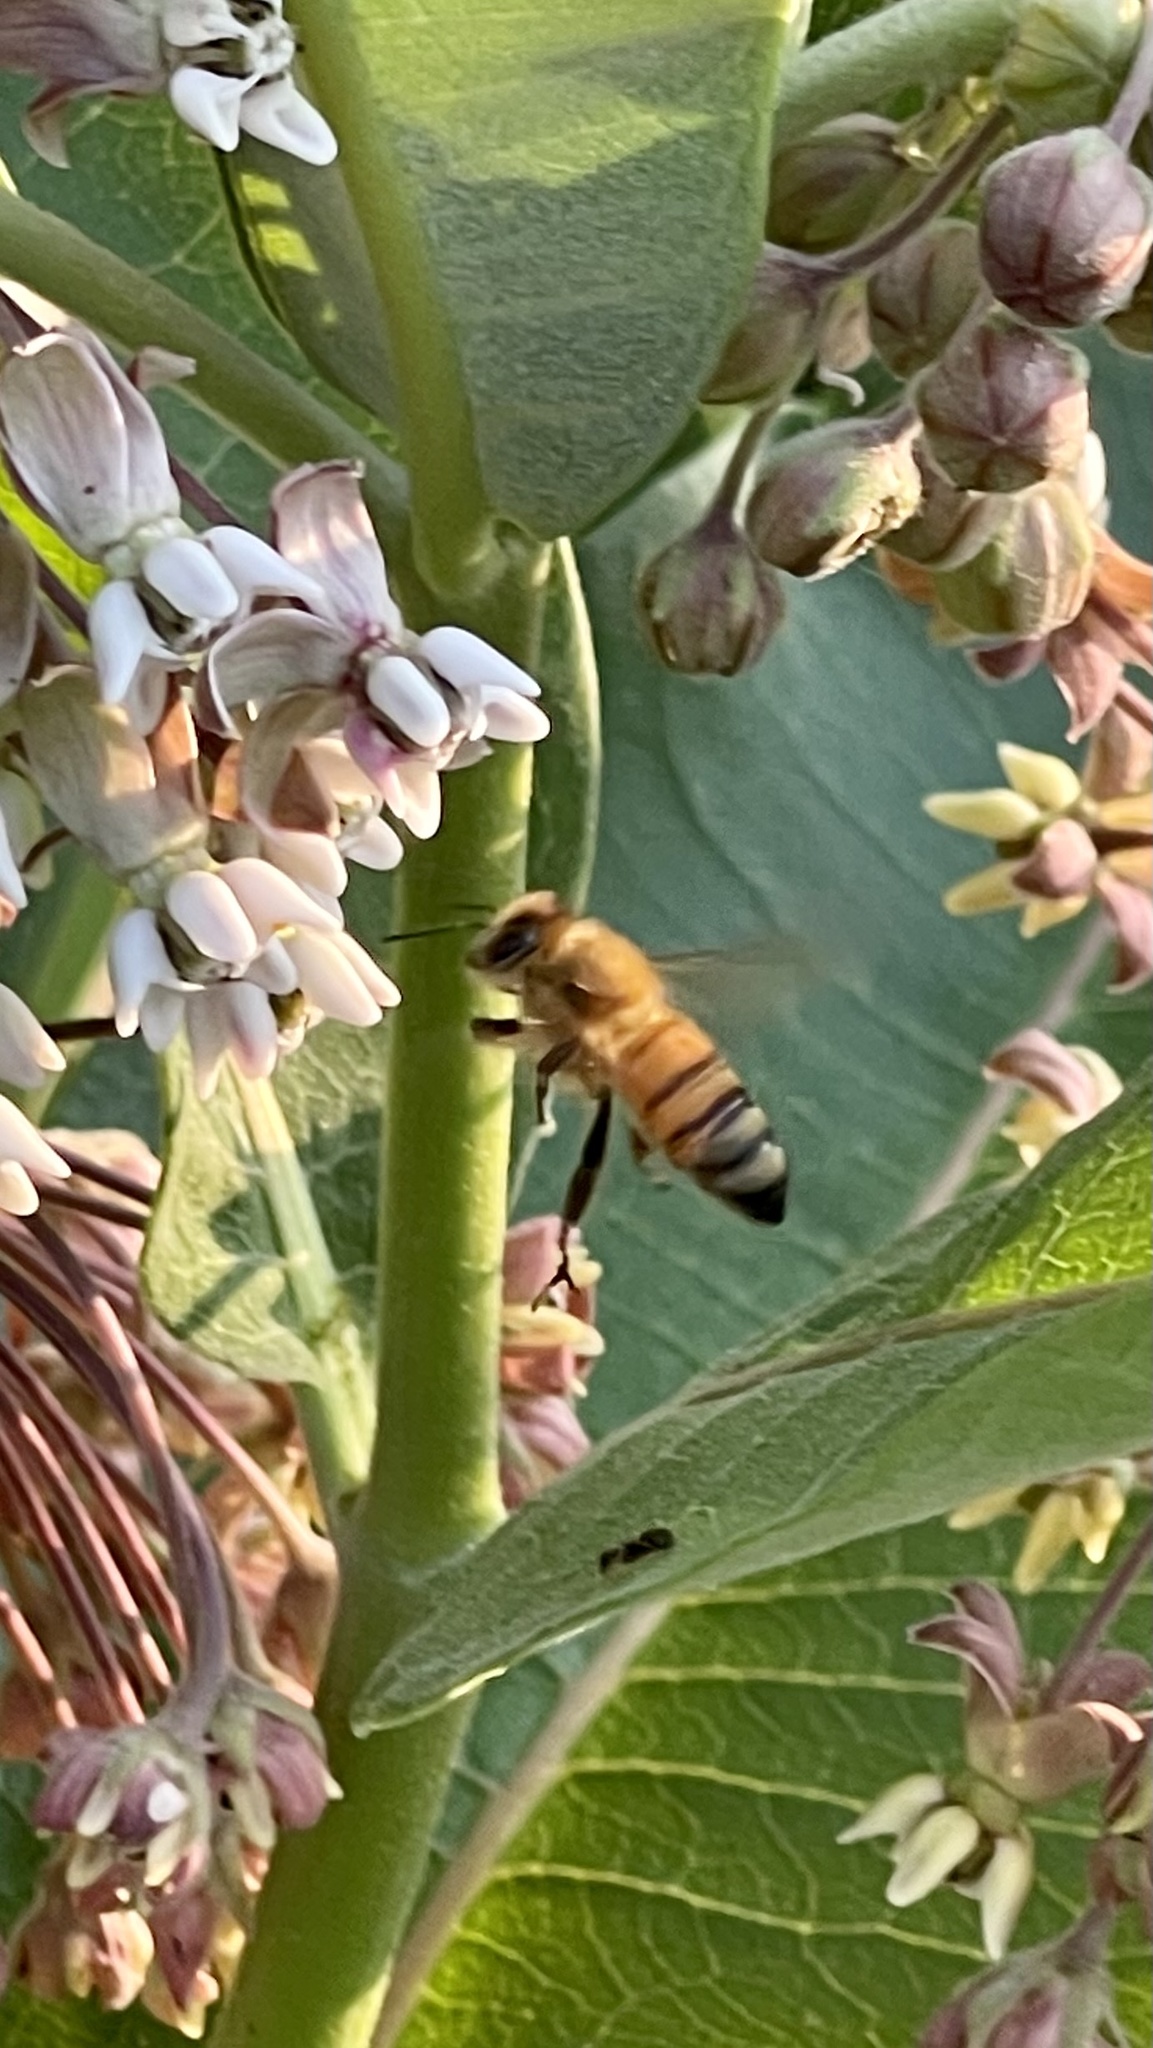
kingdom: Animalia
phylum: Arthropoda
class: Insecta
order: Hymenoptera
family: Apidae
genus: Apis
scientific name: Apis mellifera
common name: Honey bee
